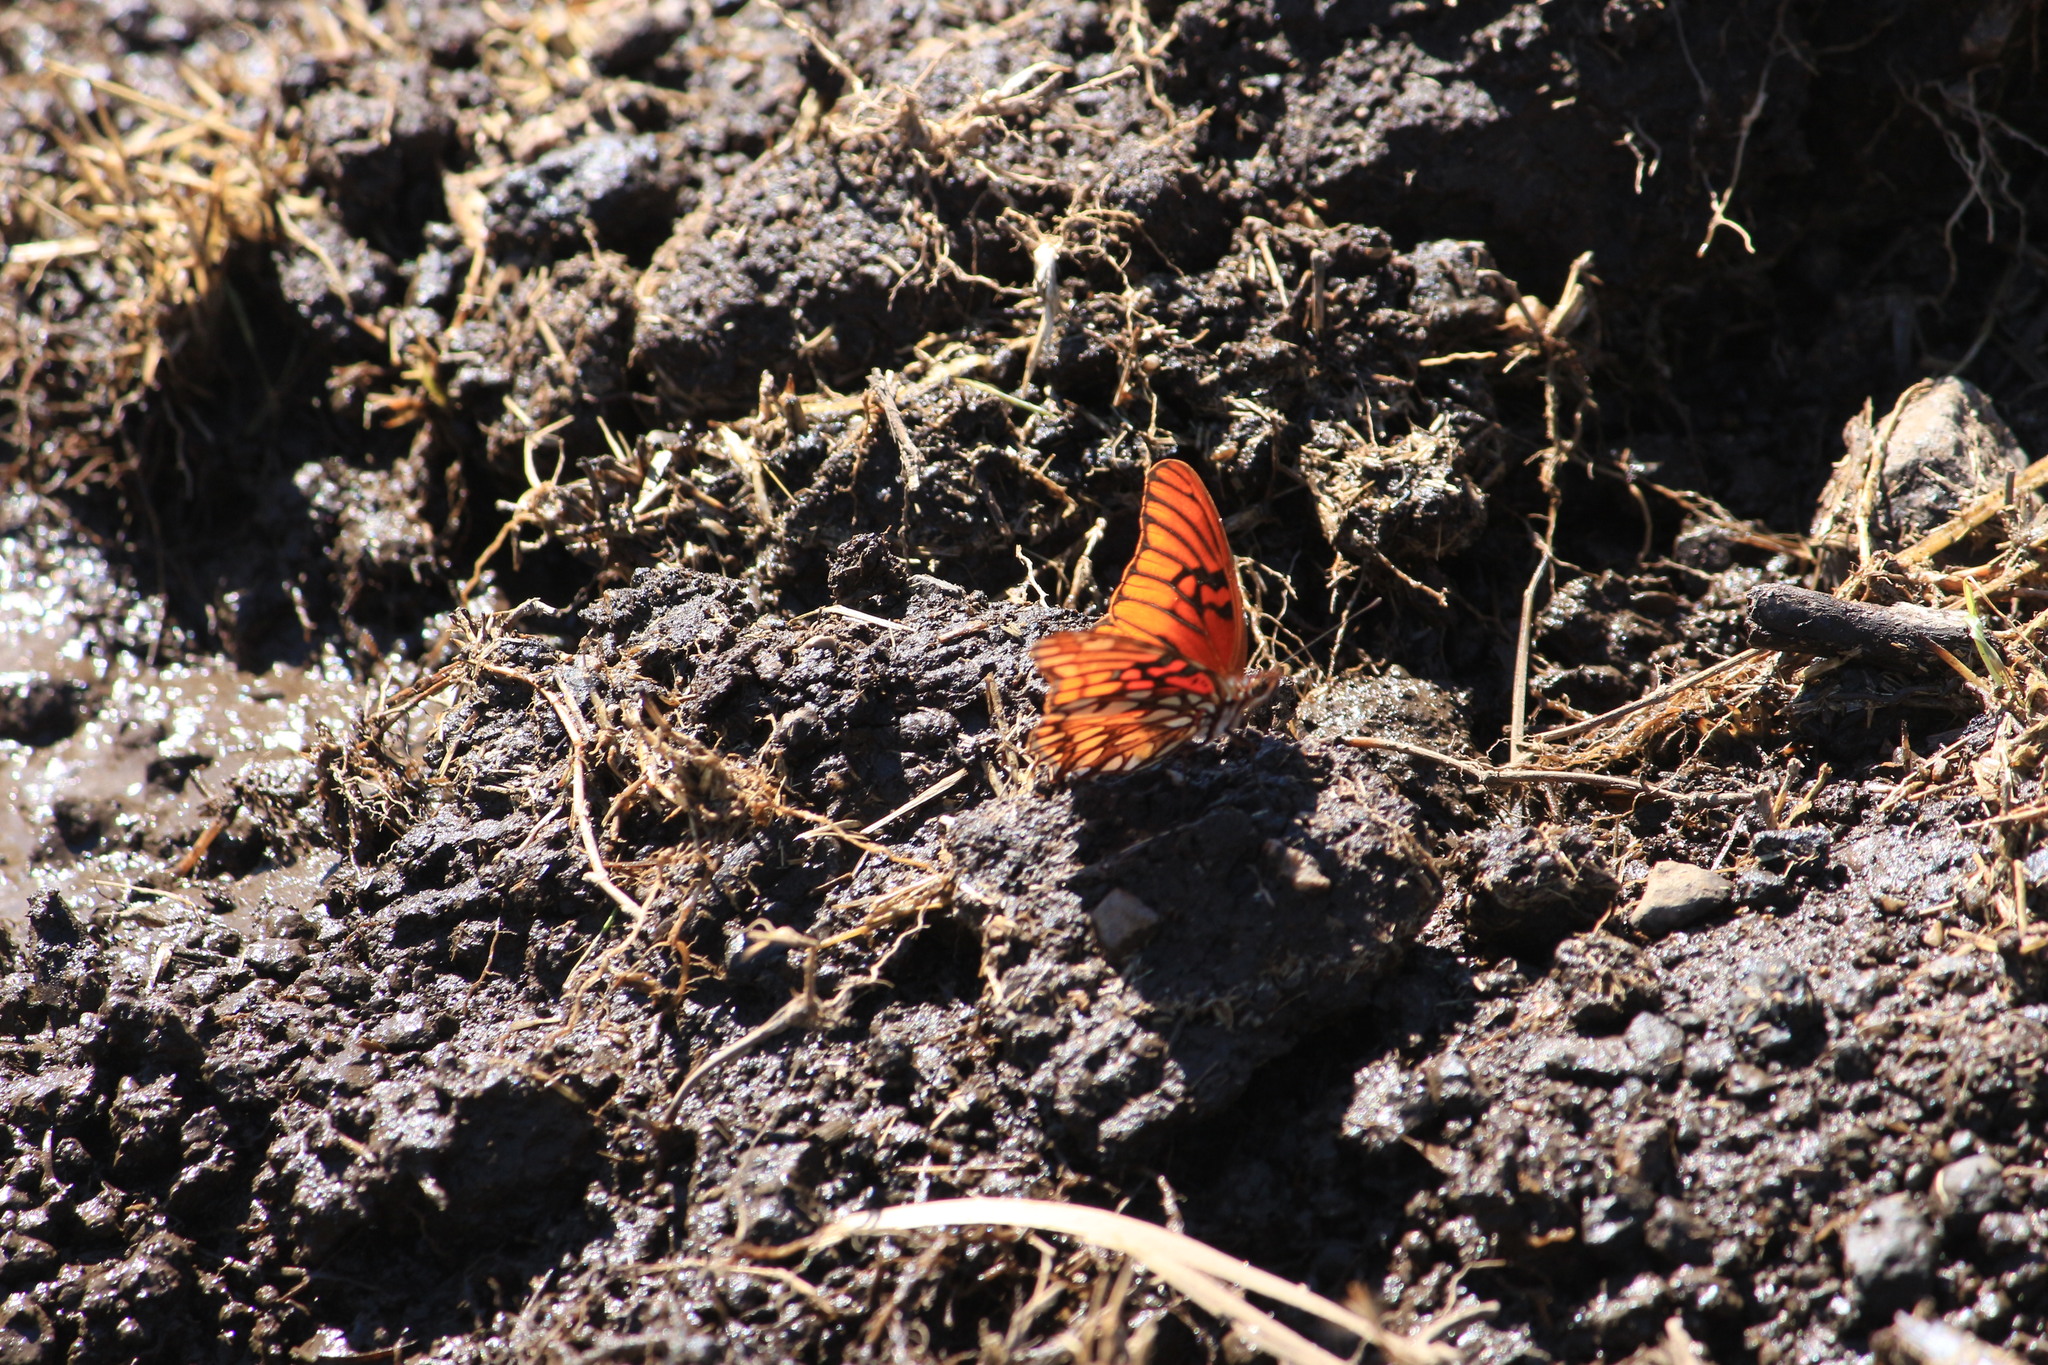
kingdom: Animalia
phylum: Arthropoda
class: Insecta
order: Lepidoptera
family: Nymphalidae
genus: Dione
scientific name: Dione moneta
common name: Mexican silverspot
